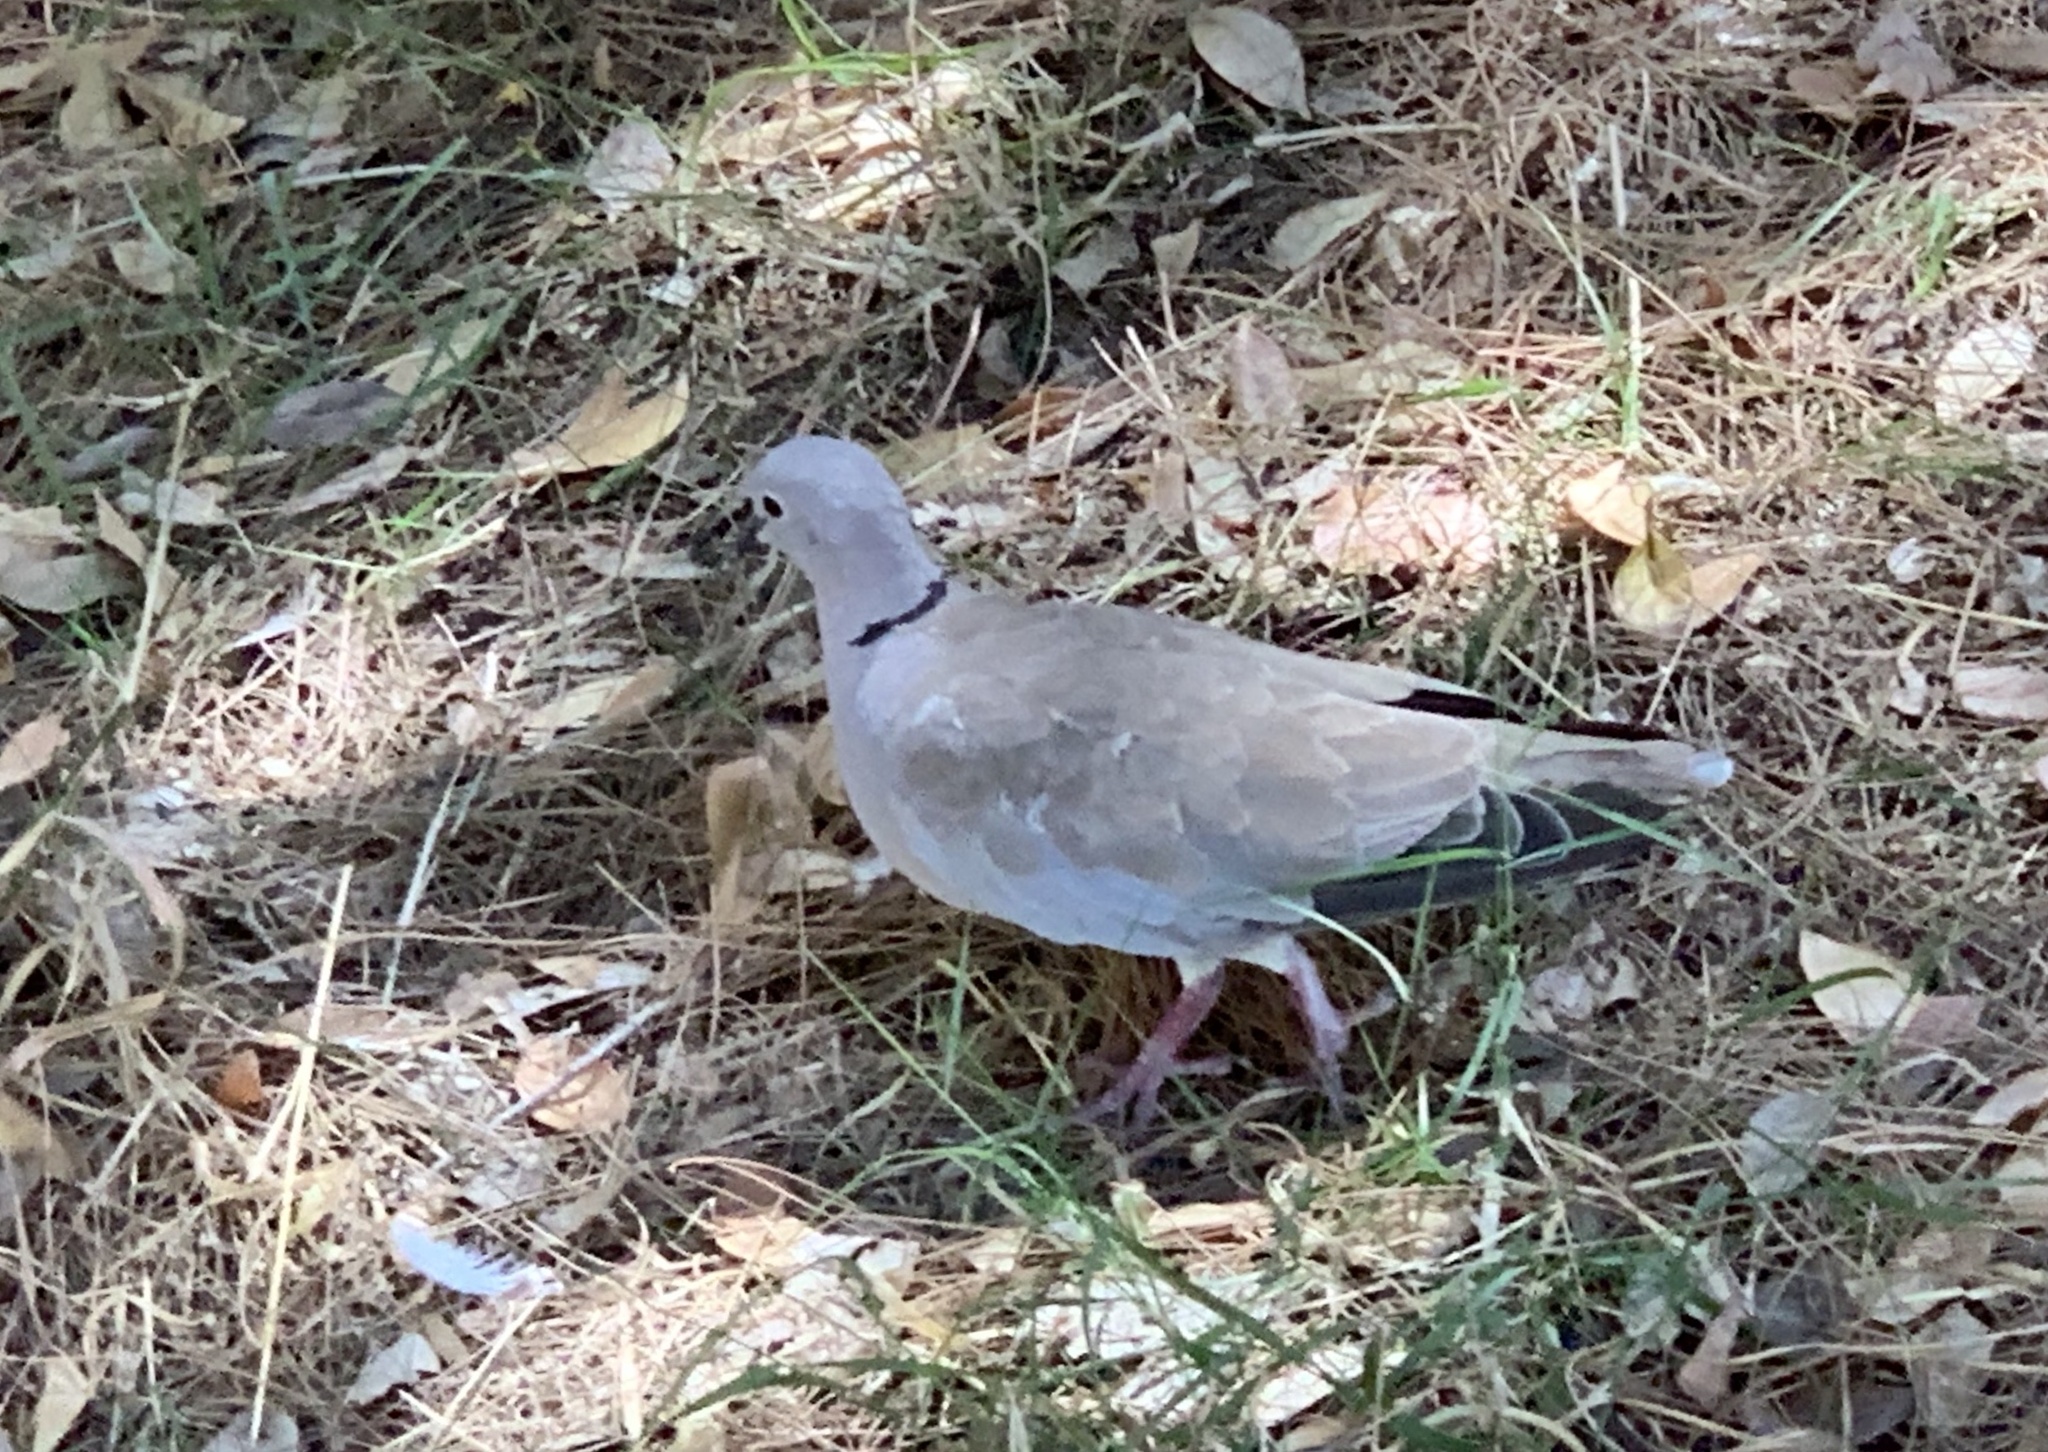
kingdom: Animalia
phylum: Chordata
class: Aves
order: Columbiformes
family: Columbidae
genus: Streptopelia
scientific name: Streptopelia decaocto
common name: Eurasian collared dove
